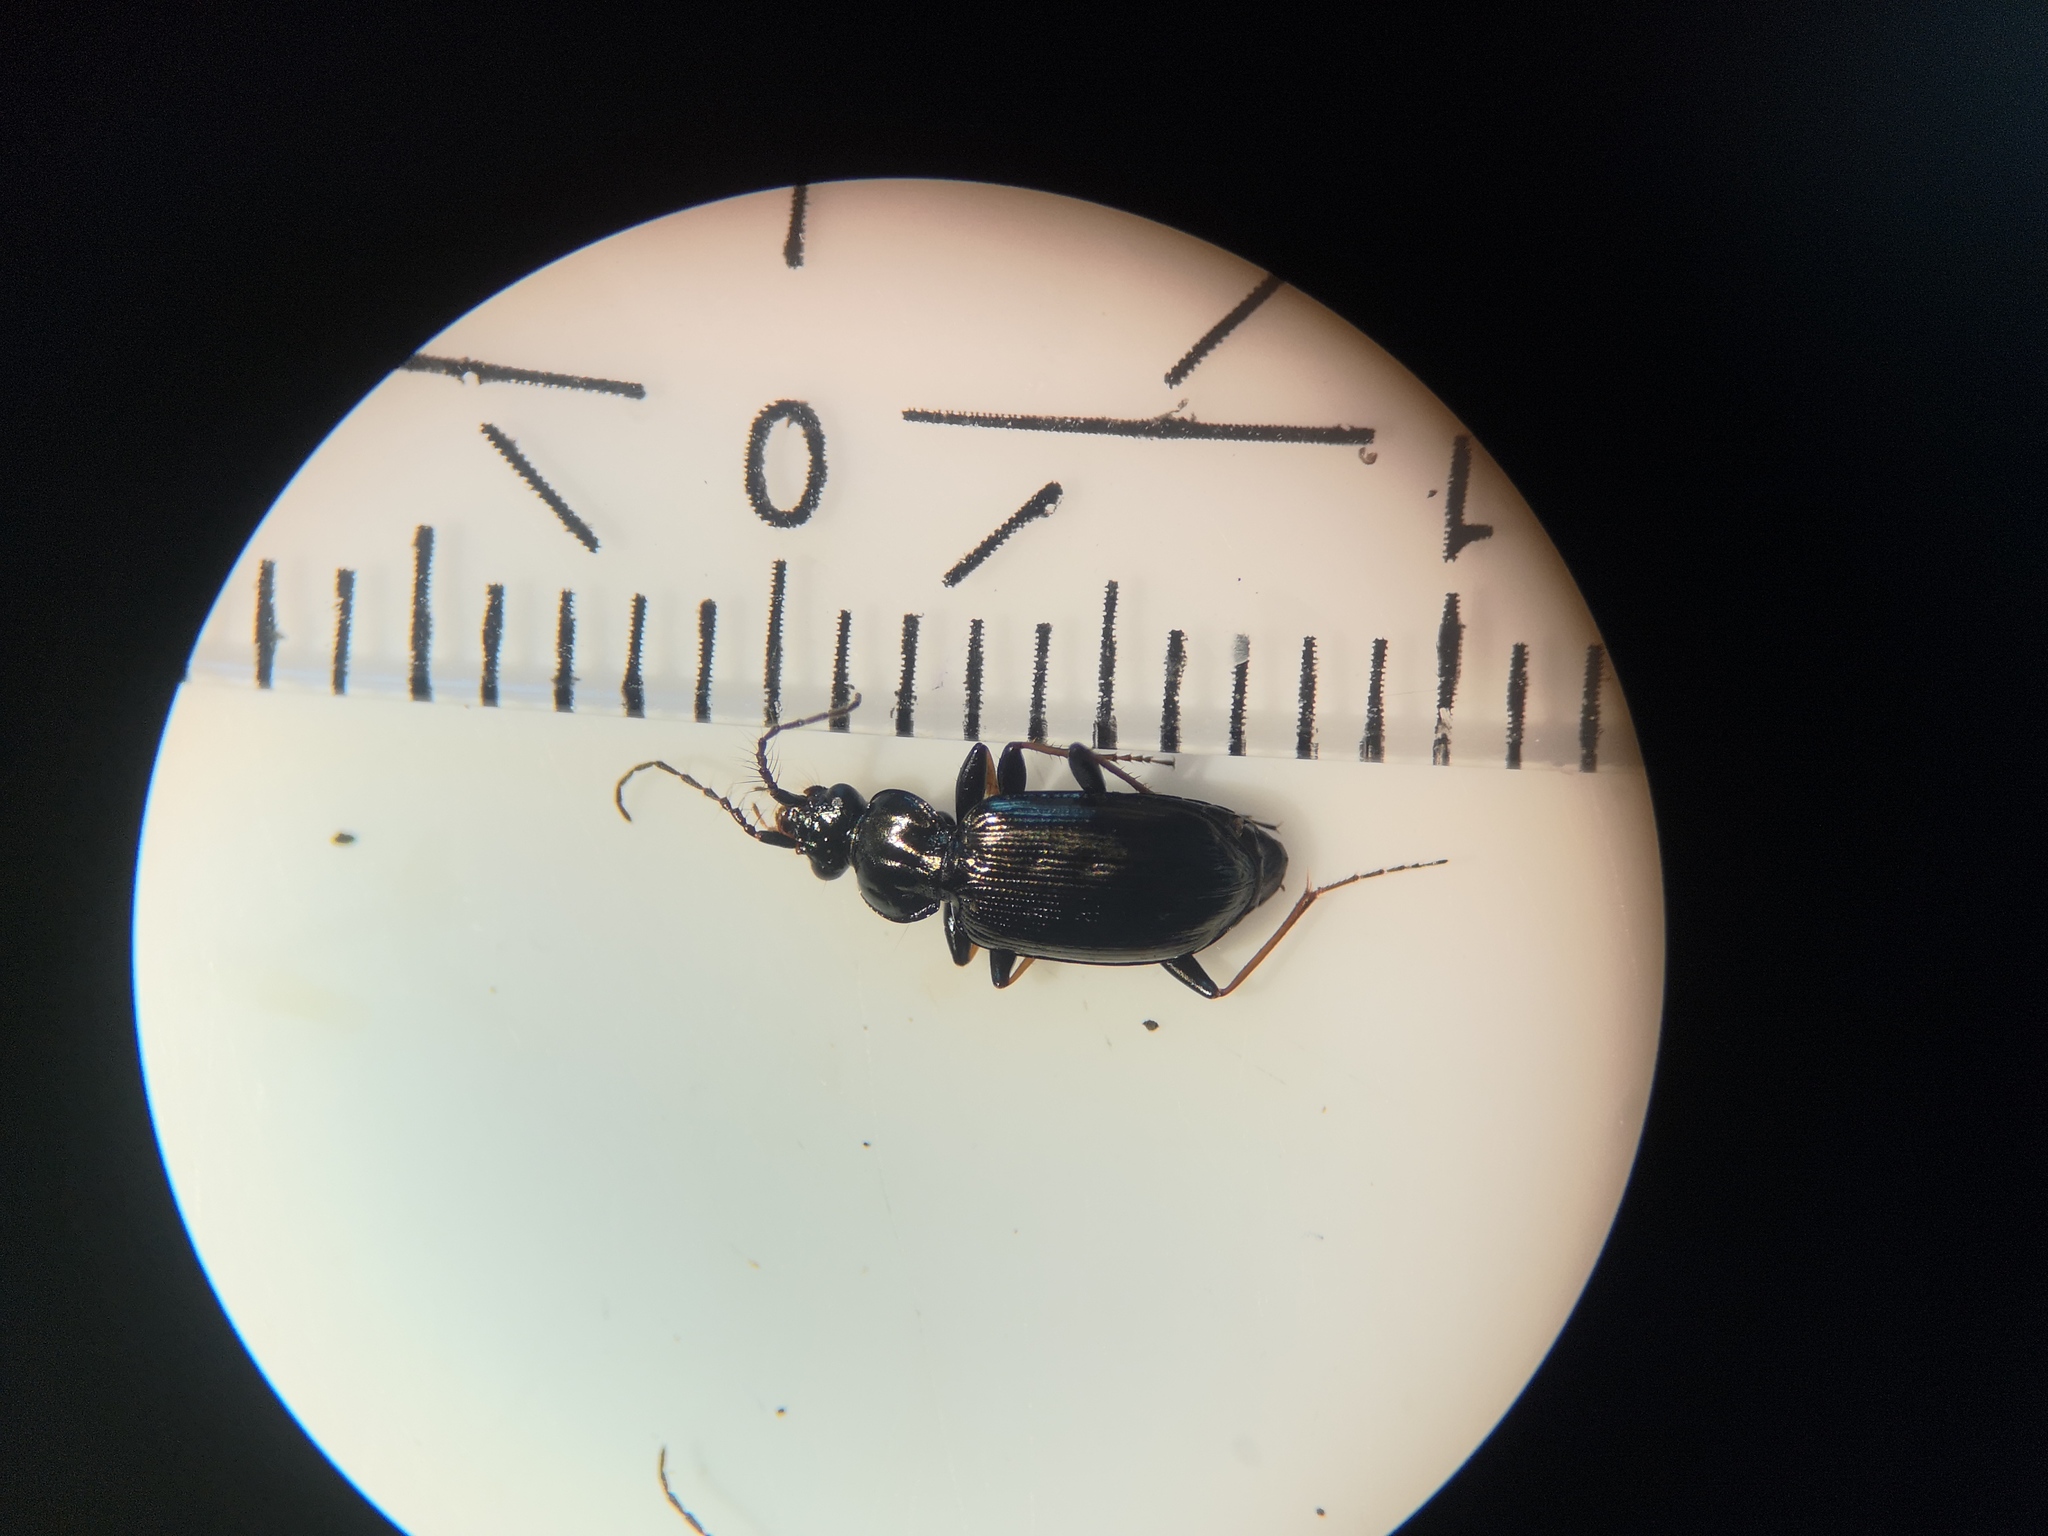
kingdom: Animalia
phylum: Arthropoda
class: Insecta
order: Coleoptera
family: Carabidae
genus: Loricera
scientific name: Loricera pilicornis
